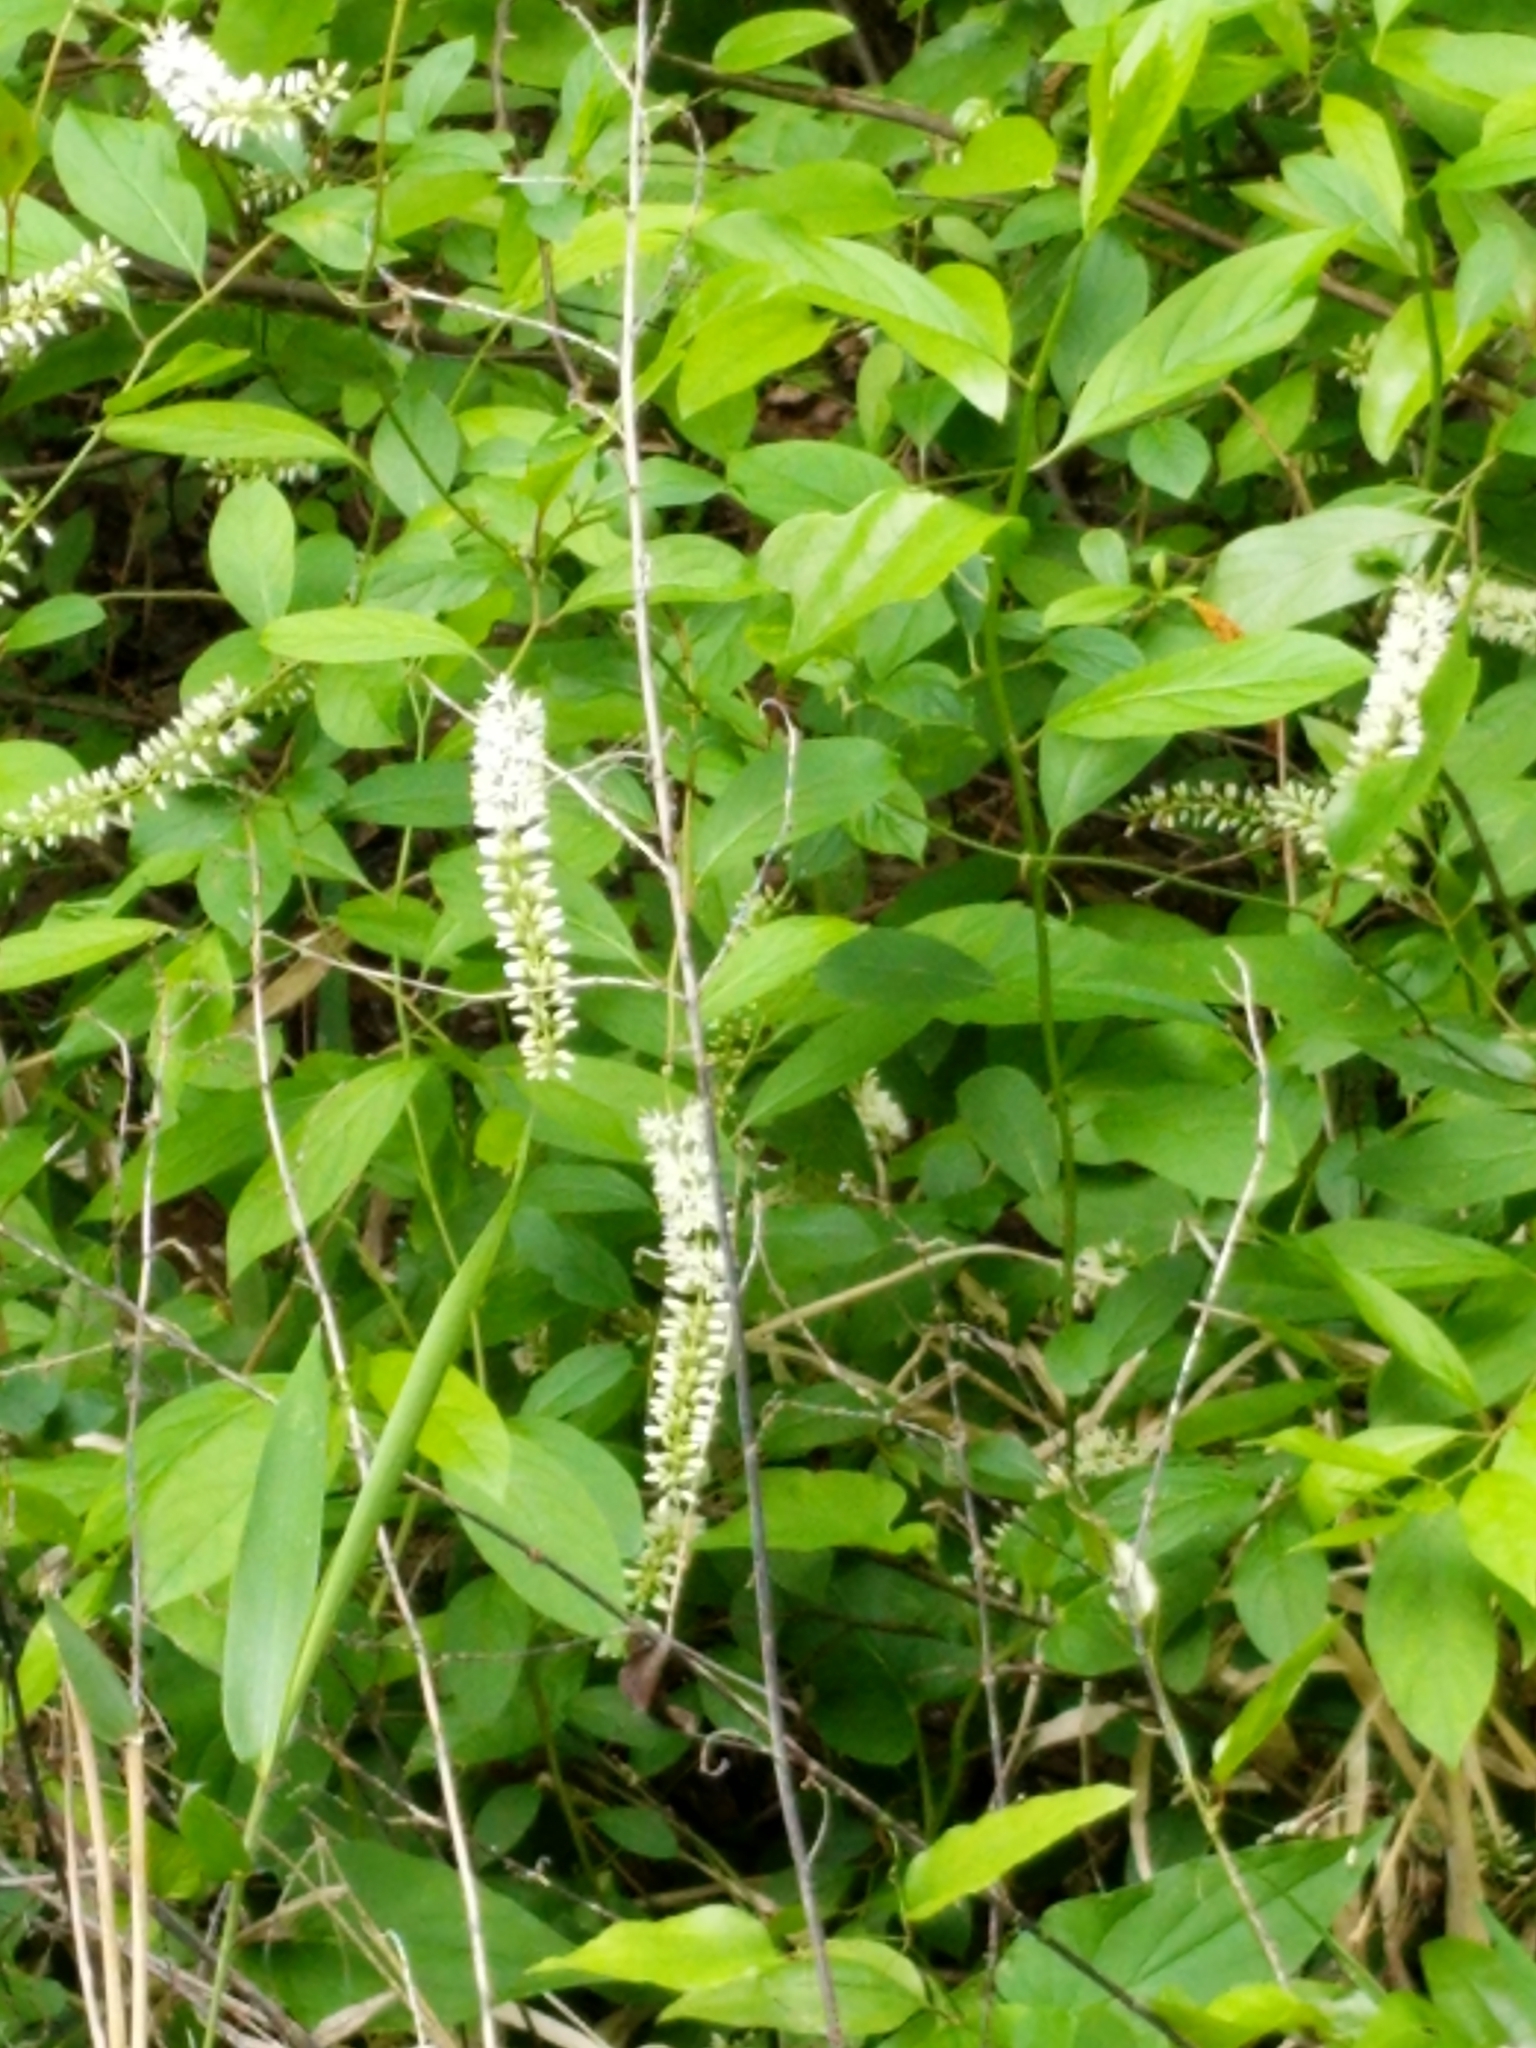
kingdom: Plantae
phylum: Tracheophyta
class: Magnoliopsida
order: Saxifragales
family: Iteaceae
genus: Itea
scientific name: Itea virginica
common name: Sweetspire
